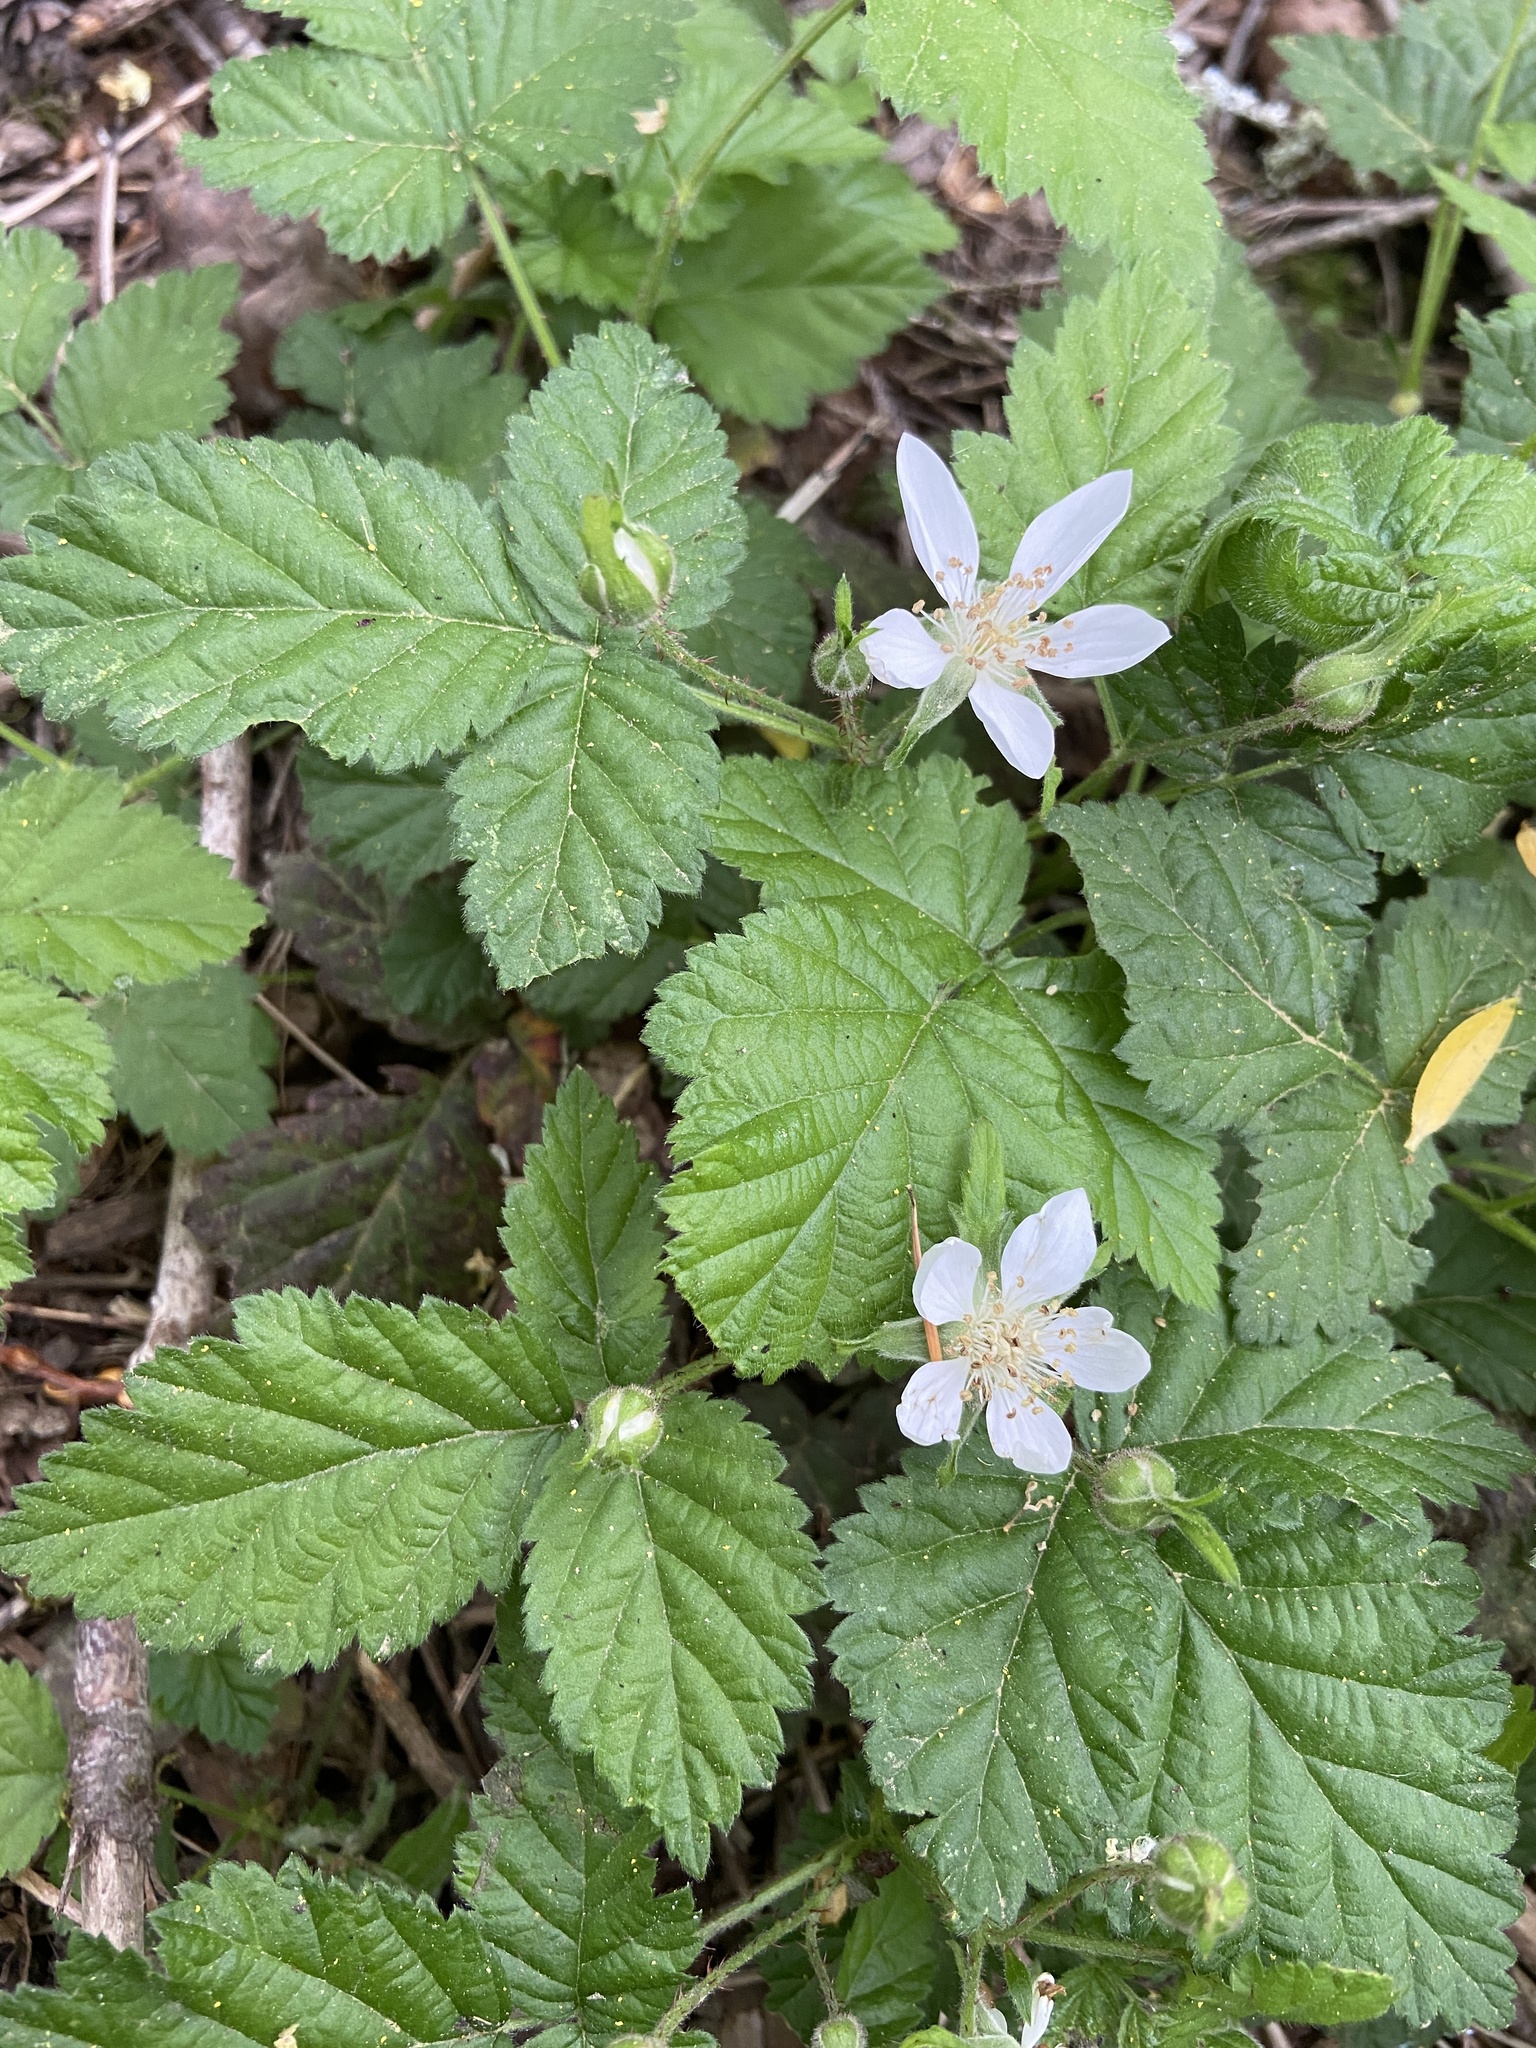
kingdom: Plantae
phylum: Tracheophyta
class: Magnoliopsida
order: Rosales
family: Rosaceae
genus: Rubus
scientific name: Rubus ursinus
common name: Pacific blackberry
